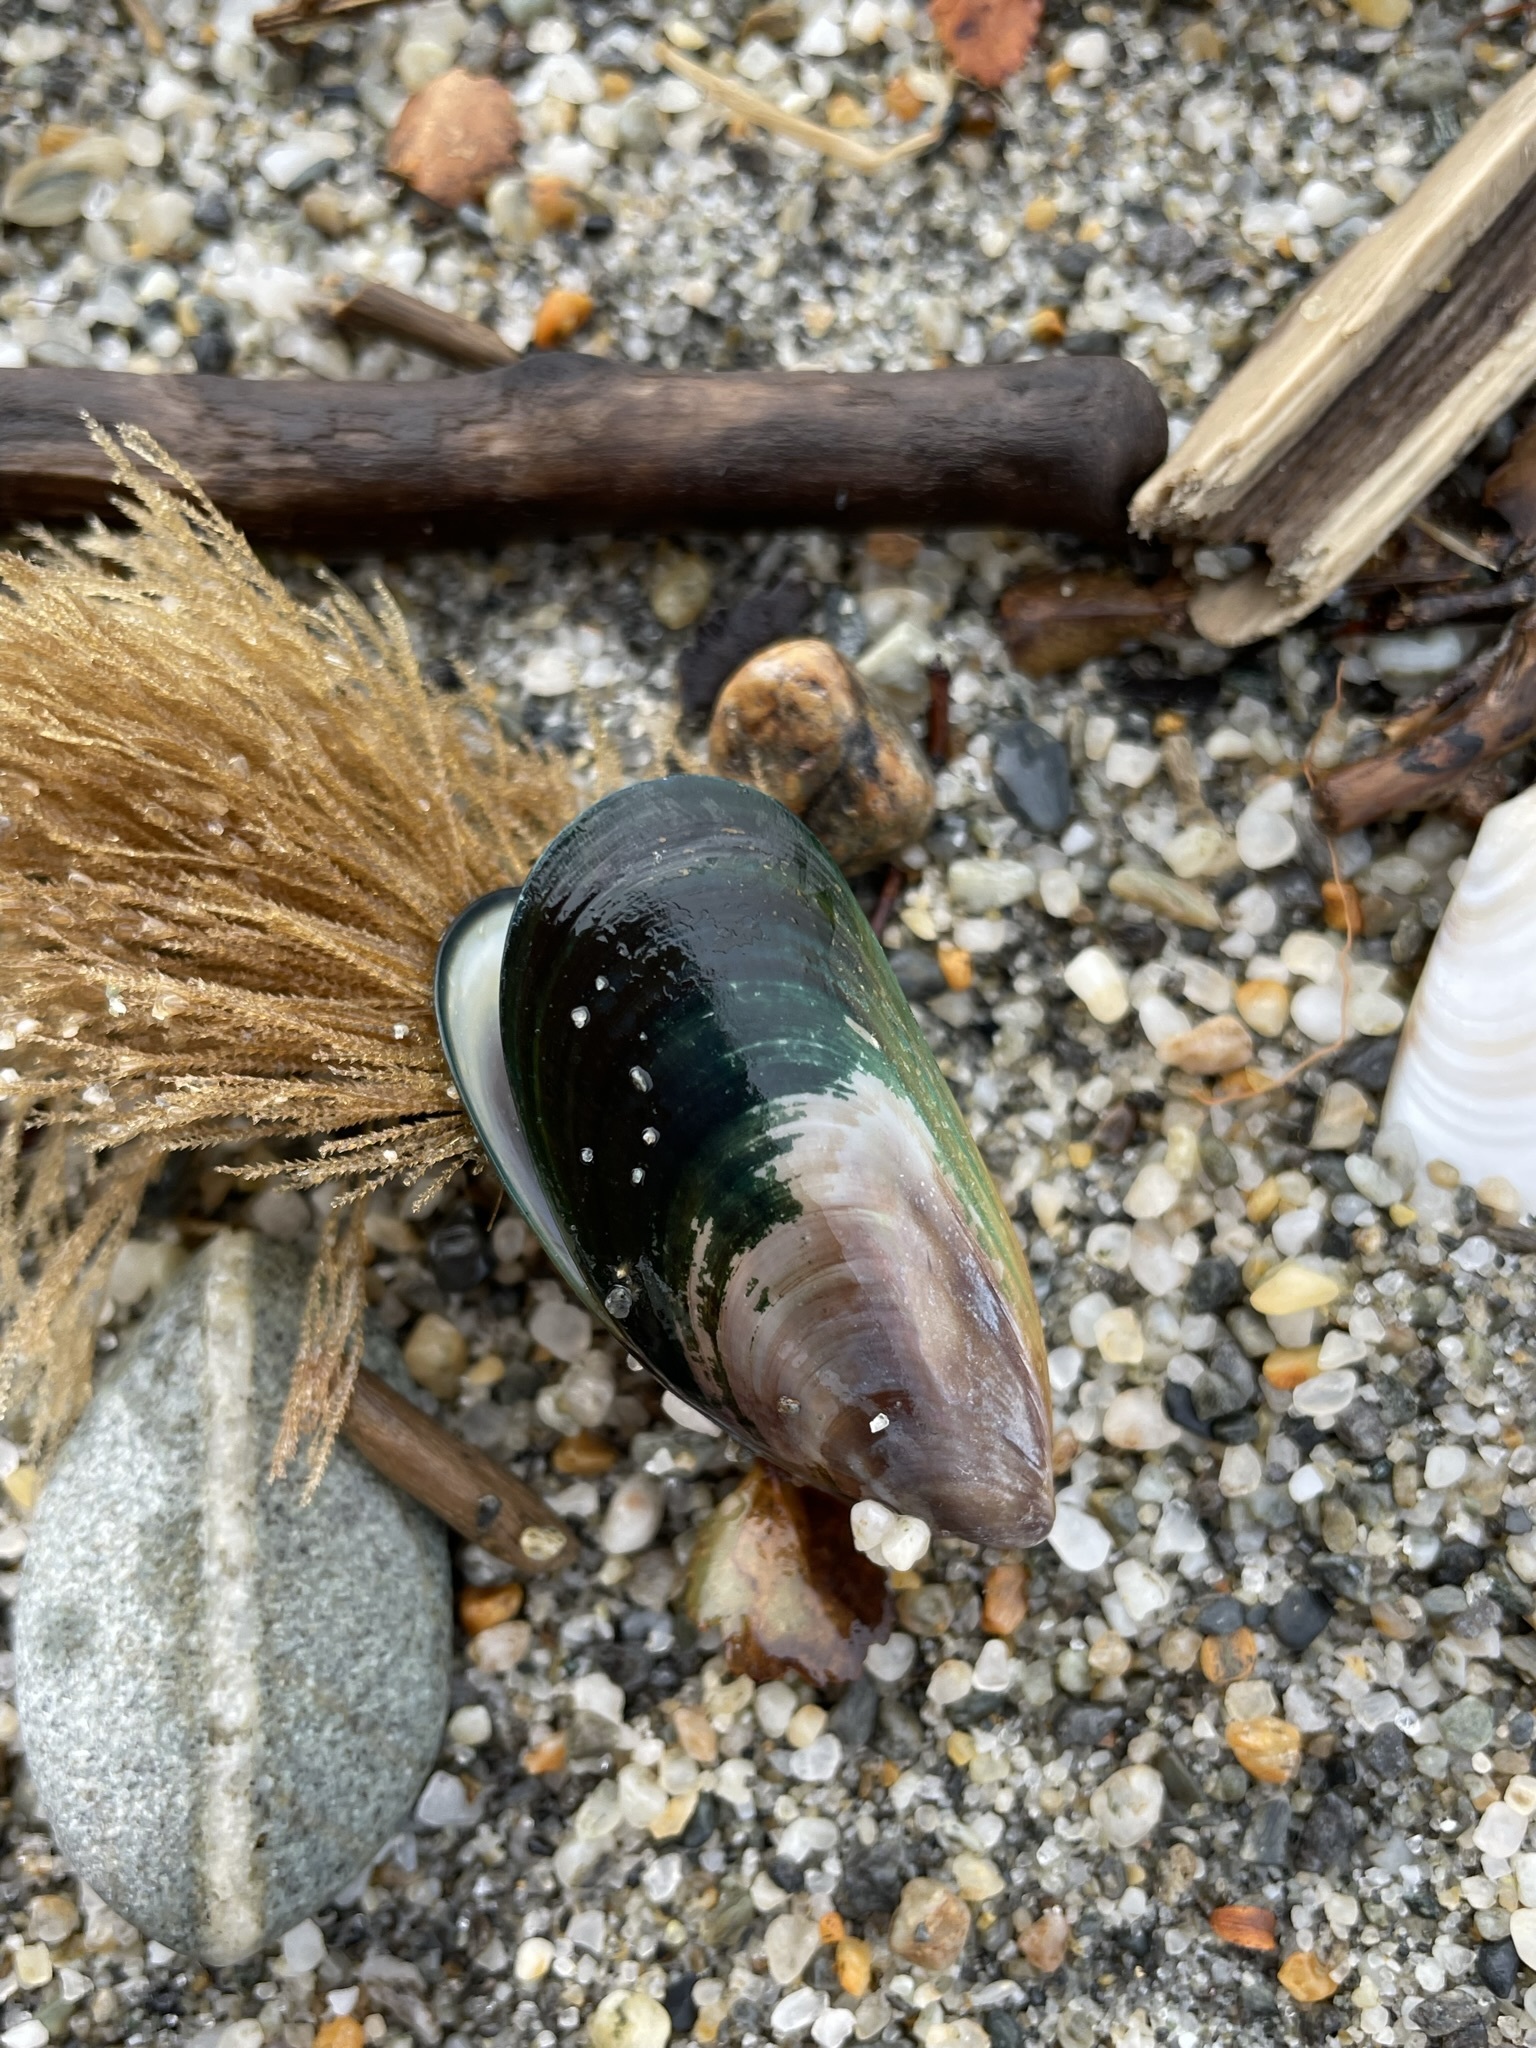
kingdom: Animalia
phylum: Mollusca
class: Bivalvia
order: Mytilida
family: Mytilidae
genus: Perna
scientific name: Perna canaliculus
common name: New zealand greenshelltm
